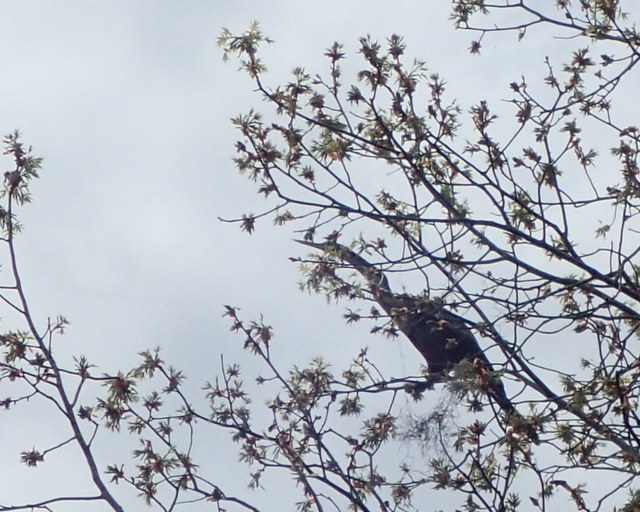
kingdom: Animalia
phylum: Chordata
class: Aves
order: Suliformes
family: Anhingidae
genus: Anhinga
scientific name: Anhinga anhinga
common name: Anhinga
